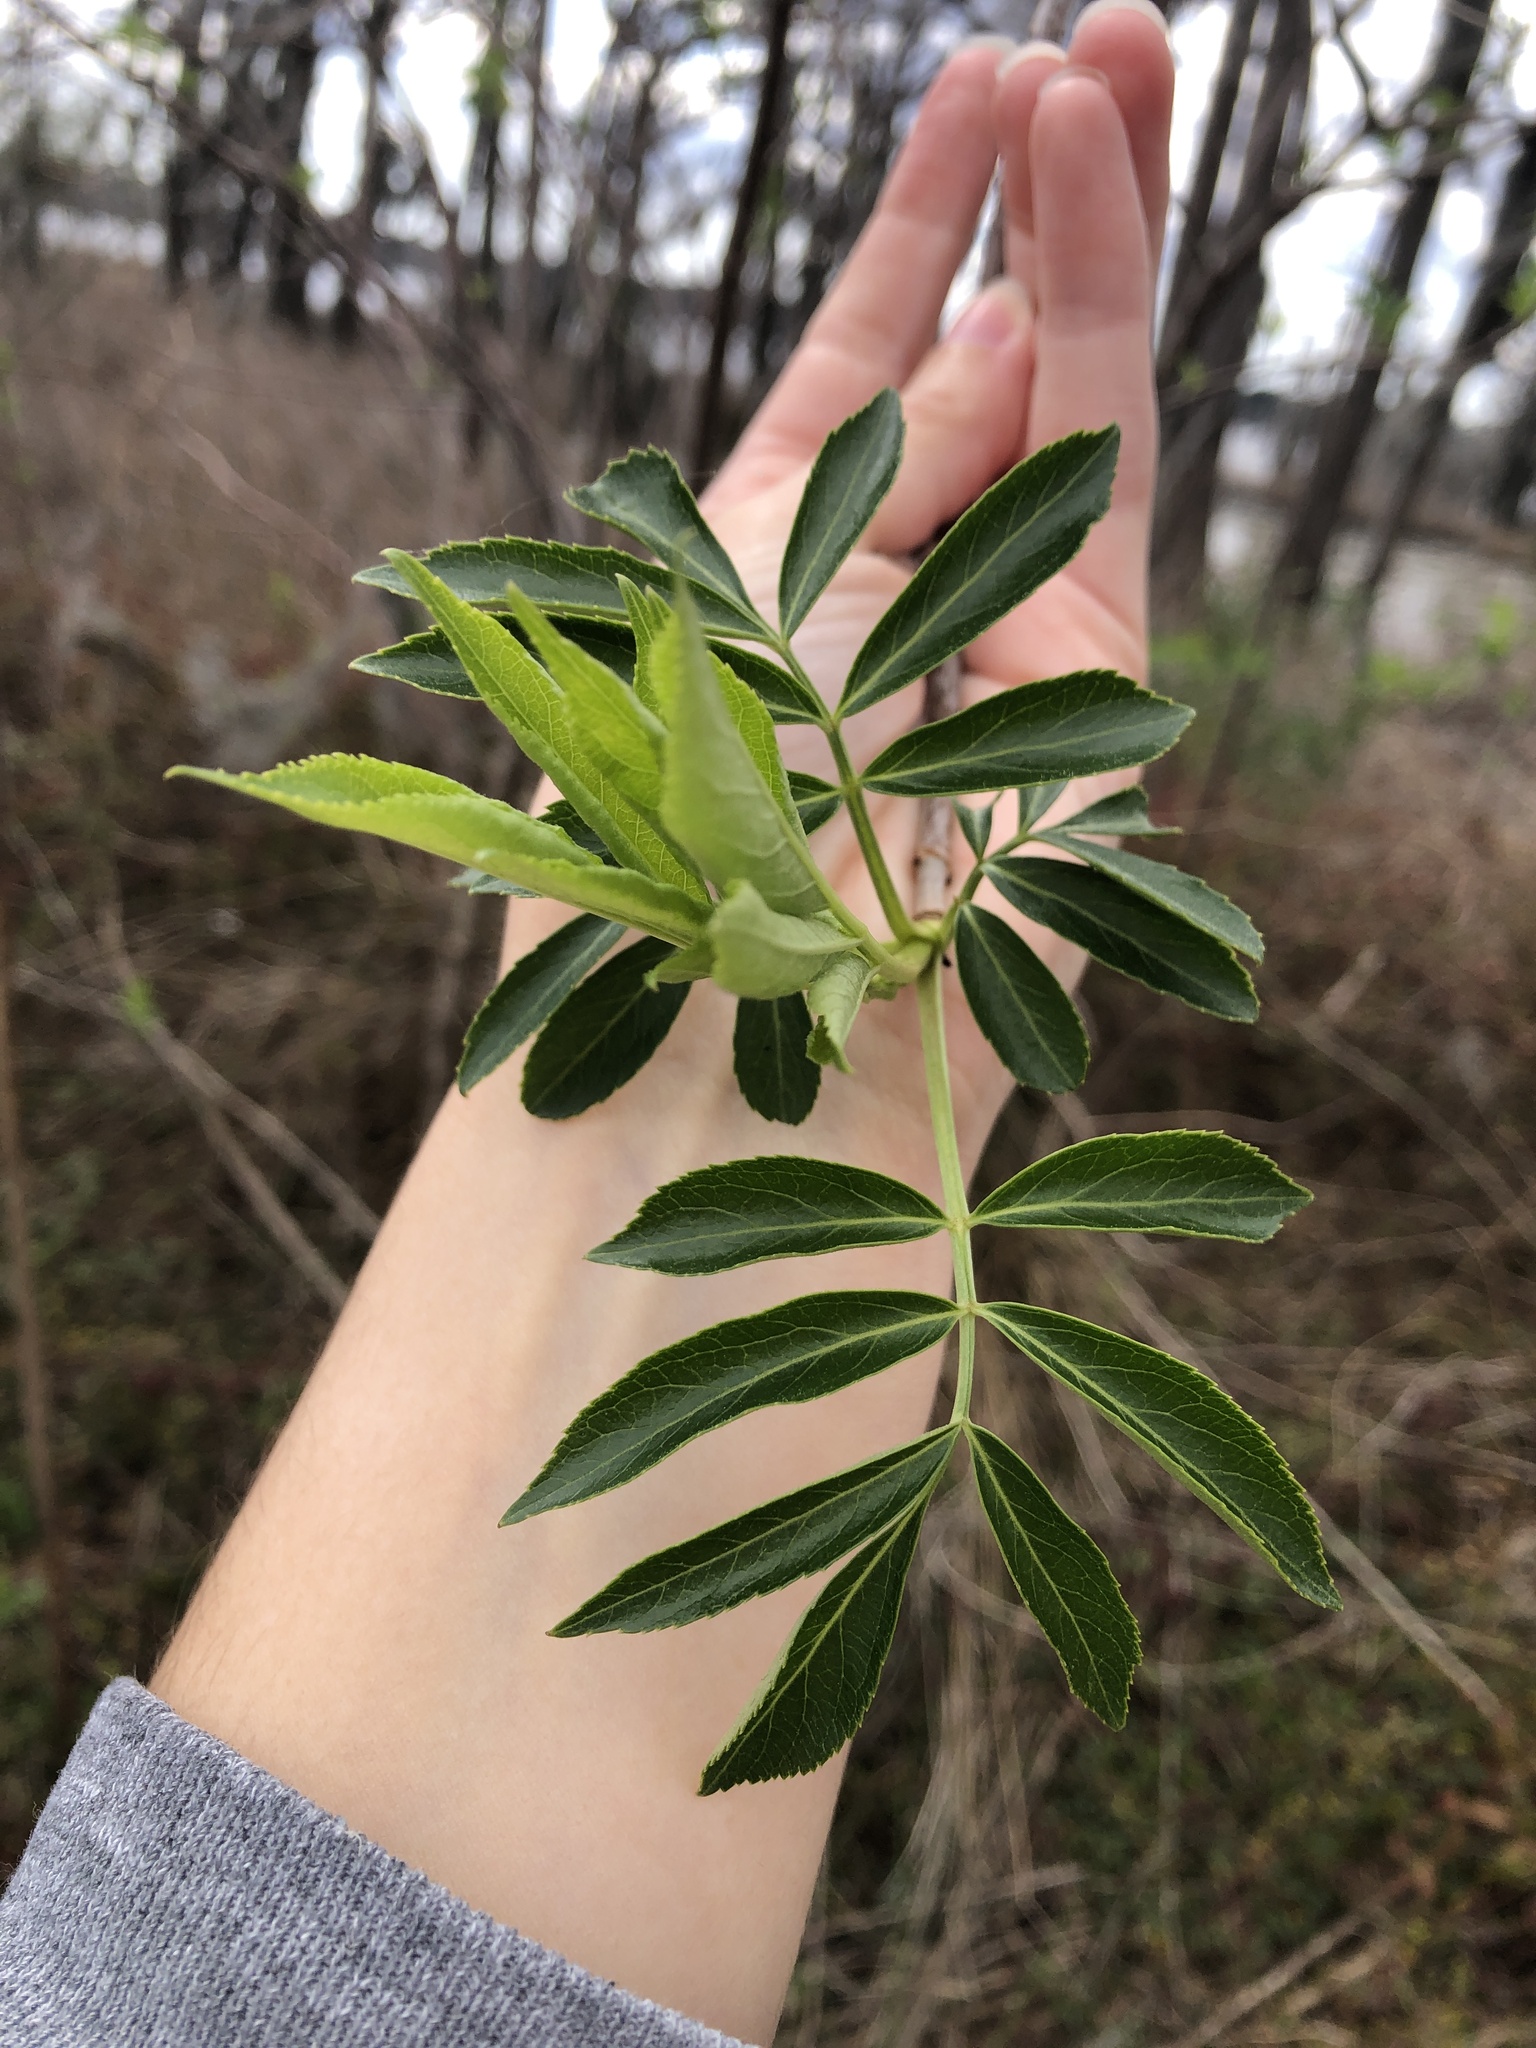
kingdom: Plantae
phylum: Tracheophyta
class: Magnoliopsida
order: Dipsacales
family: Viburnaceae
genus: Sambucus
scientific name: Sambucus canadensis
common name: American elder
